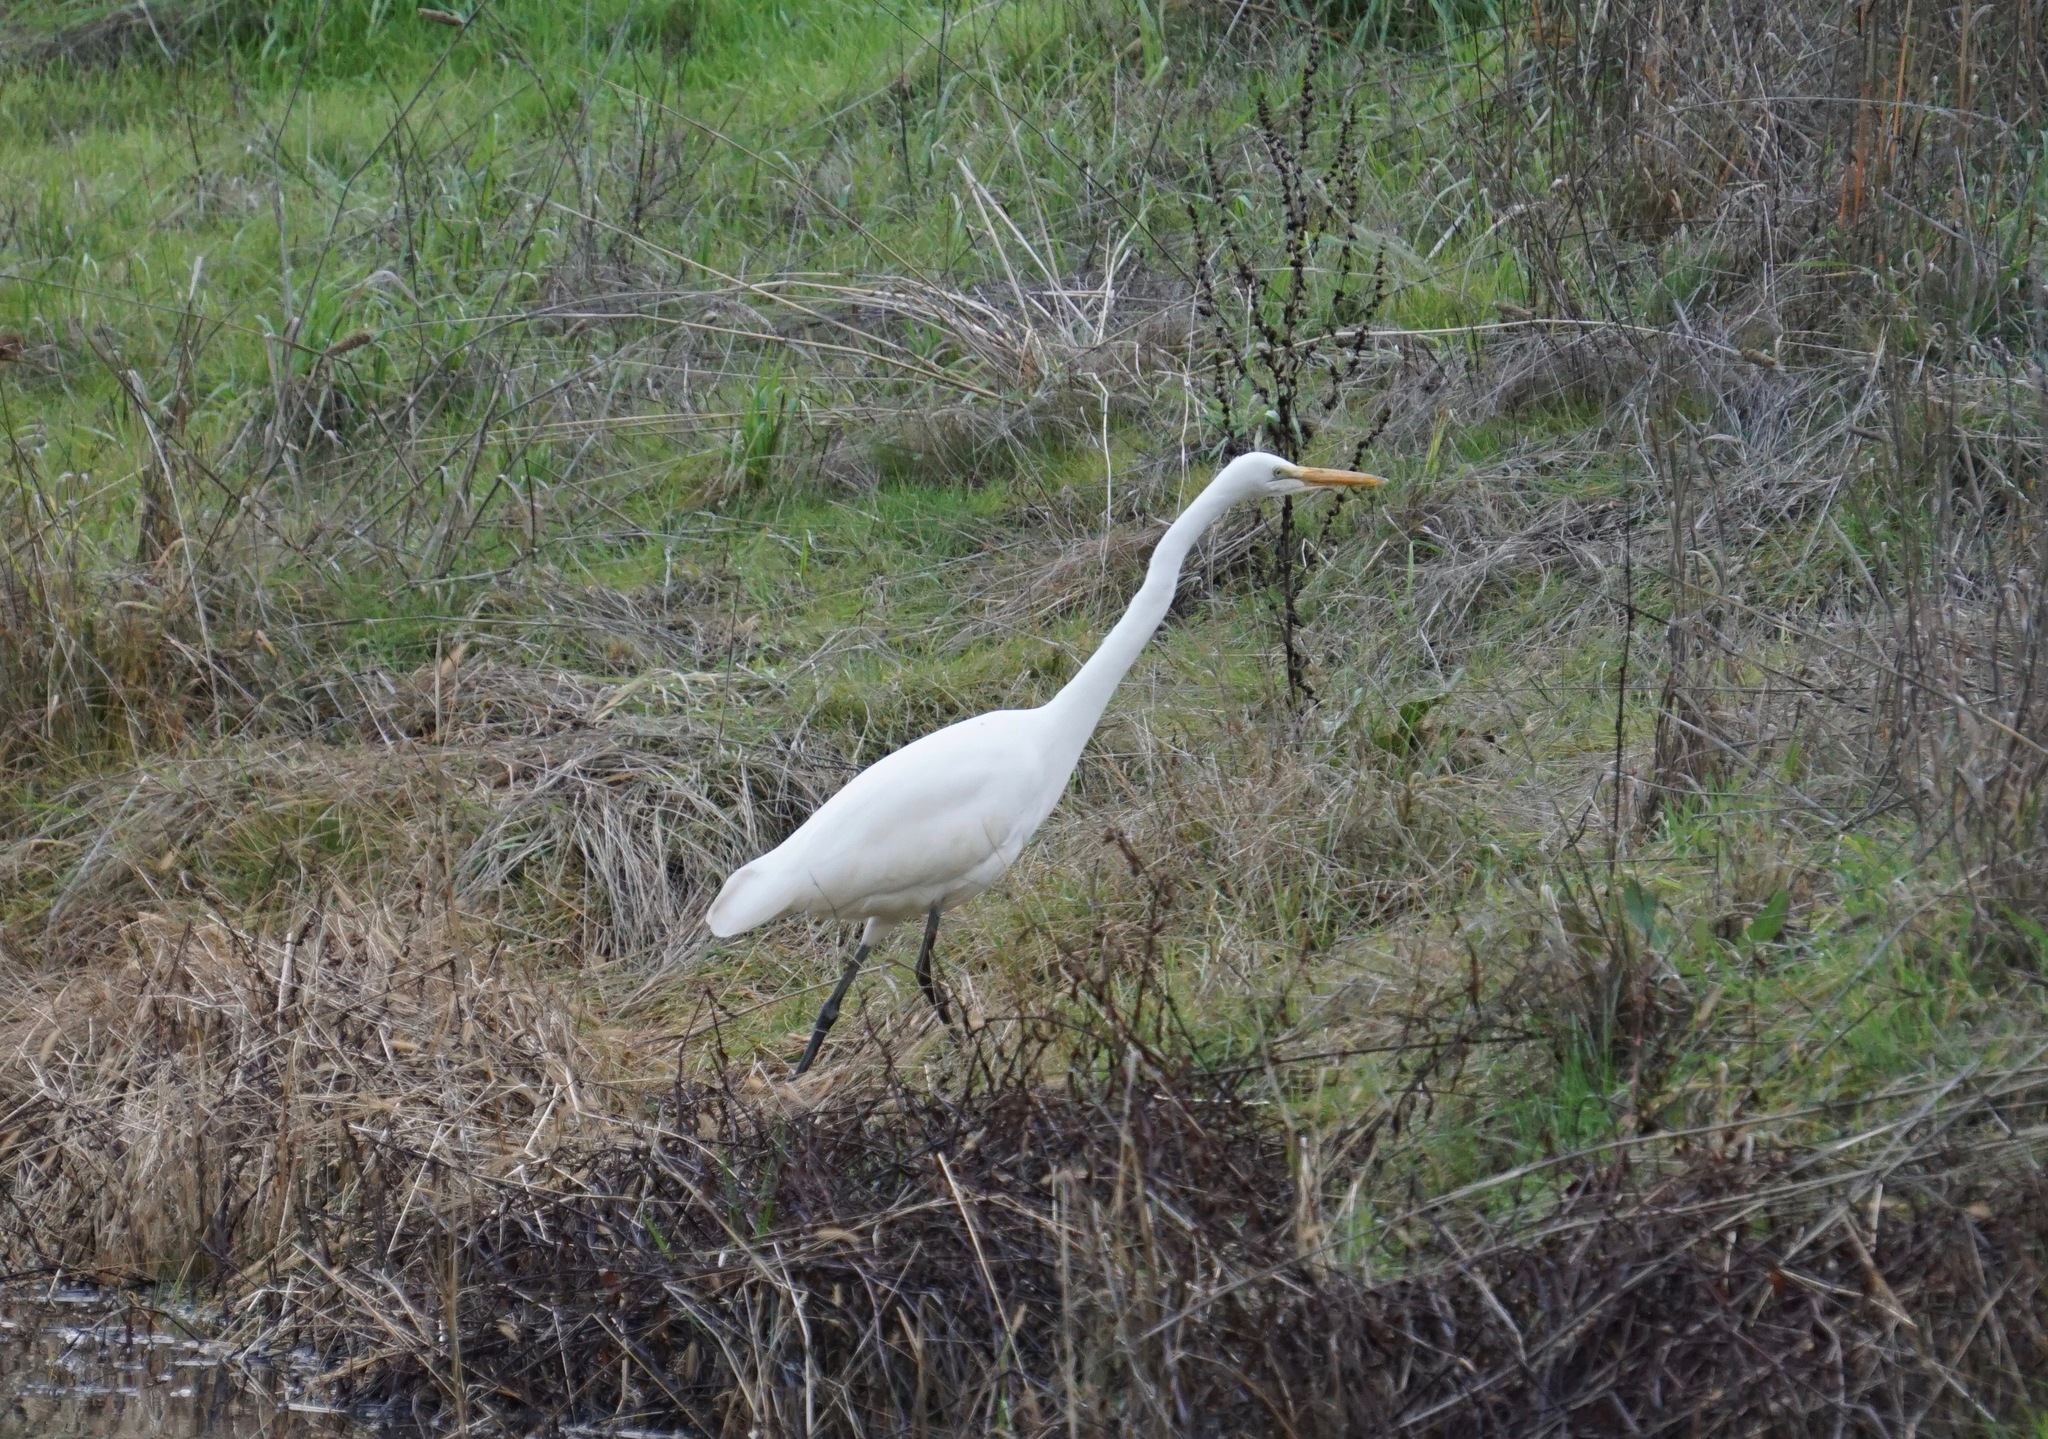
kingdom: Animalia
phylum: Chordata
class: Aves
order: Pelecaniformes
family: Ardeidae
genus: Ardea
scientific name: Ardea alba
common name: Great egret
